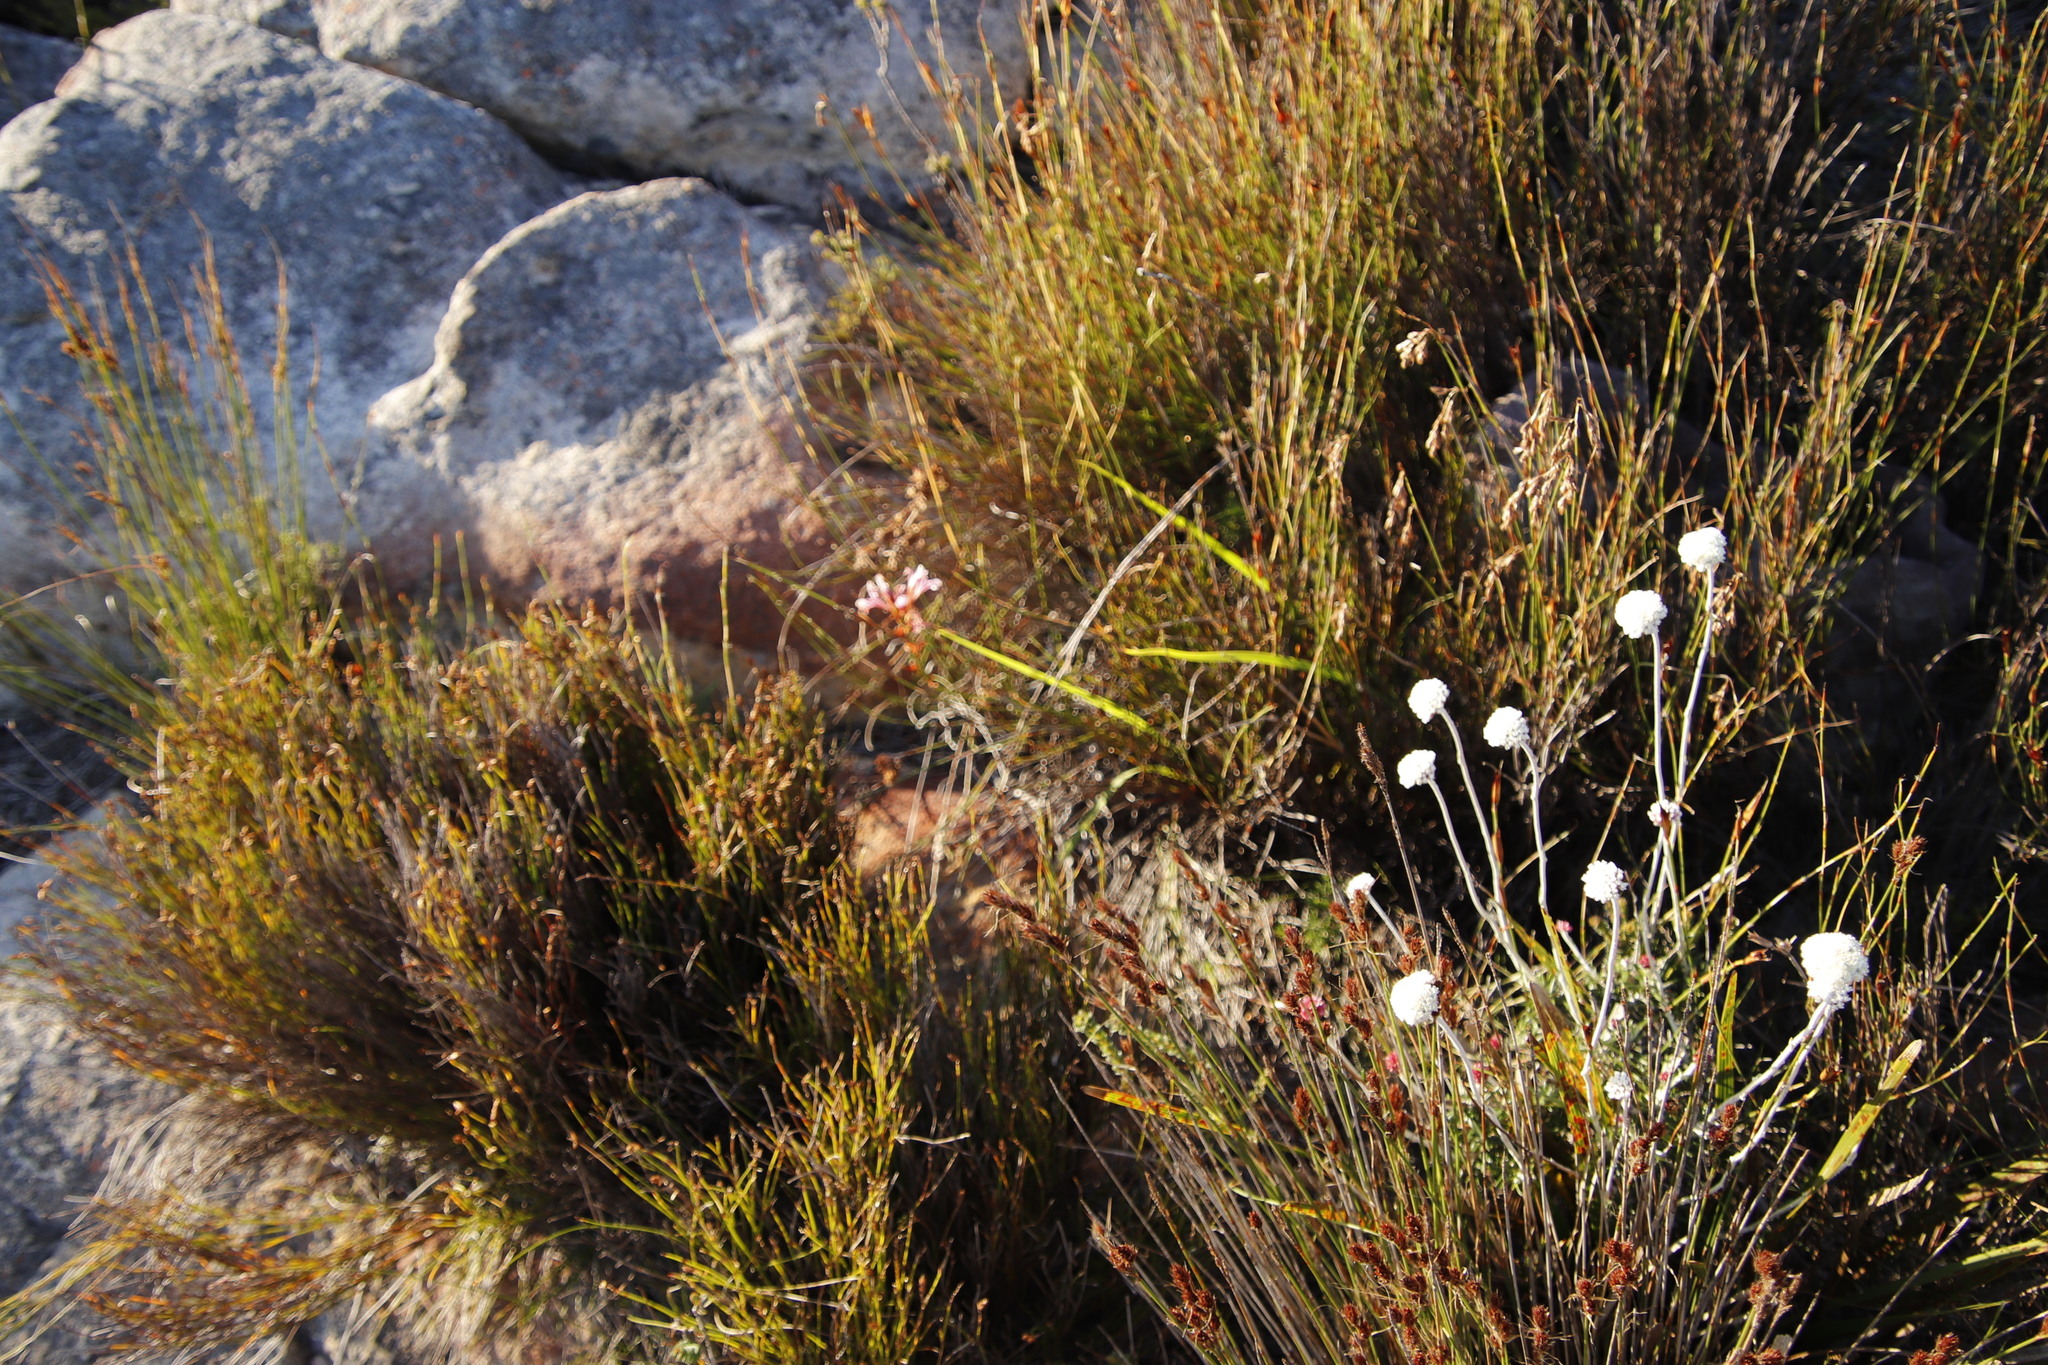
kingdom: Plantae
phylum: Tracheophyta
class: Liliopsida
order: Asparagales
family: Iridaceae
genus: Tritoniopsis
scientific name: Tritoniopsis dodii
